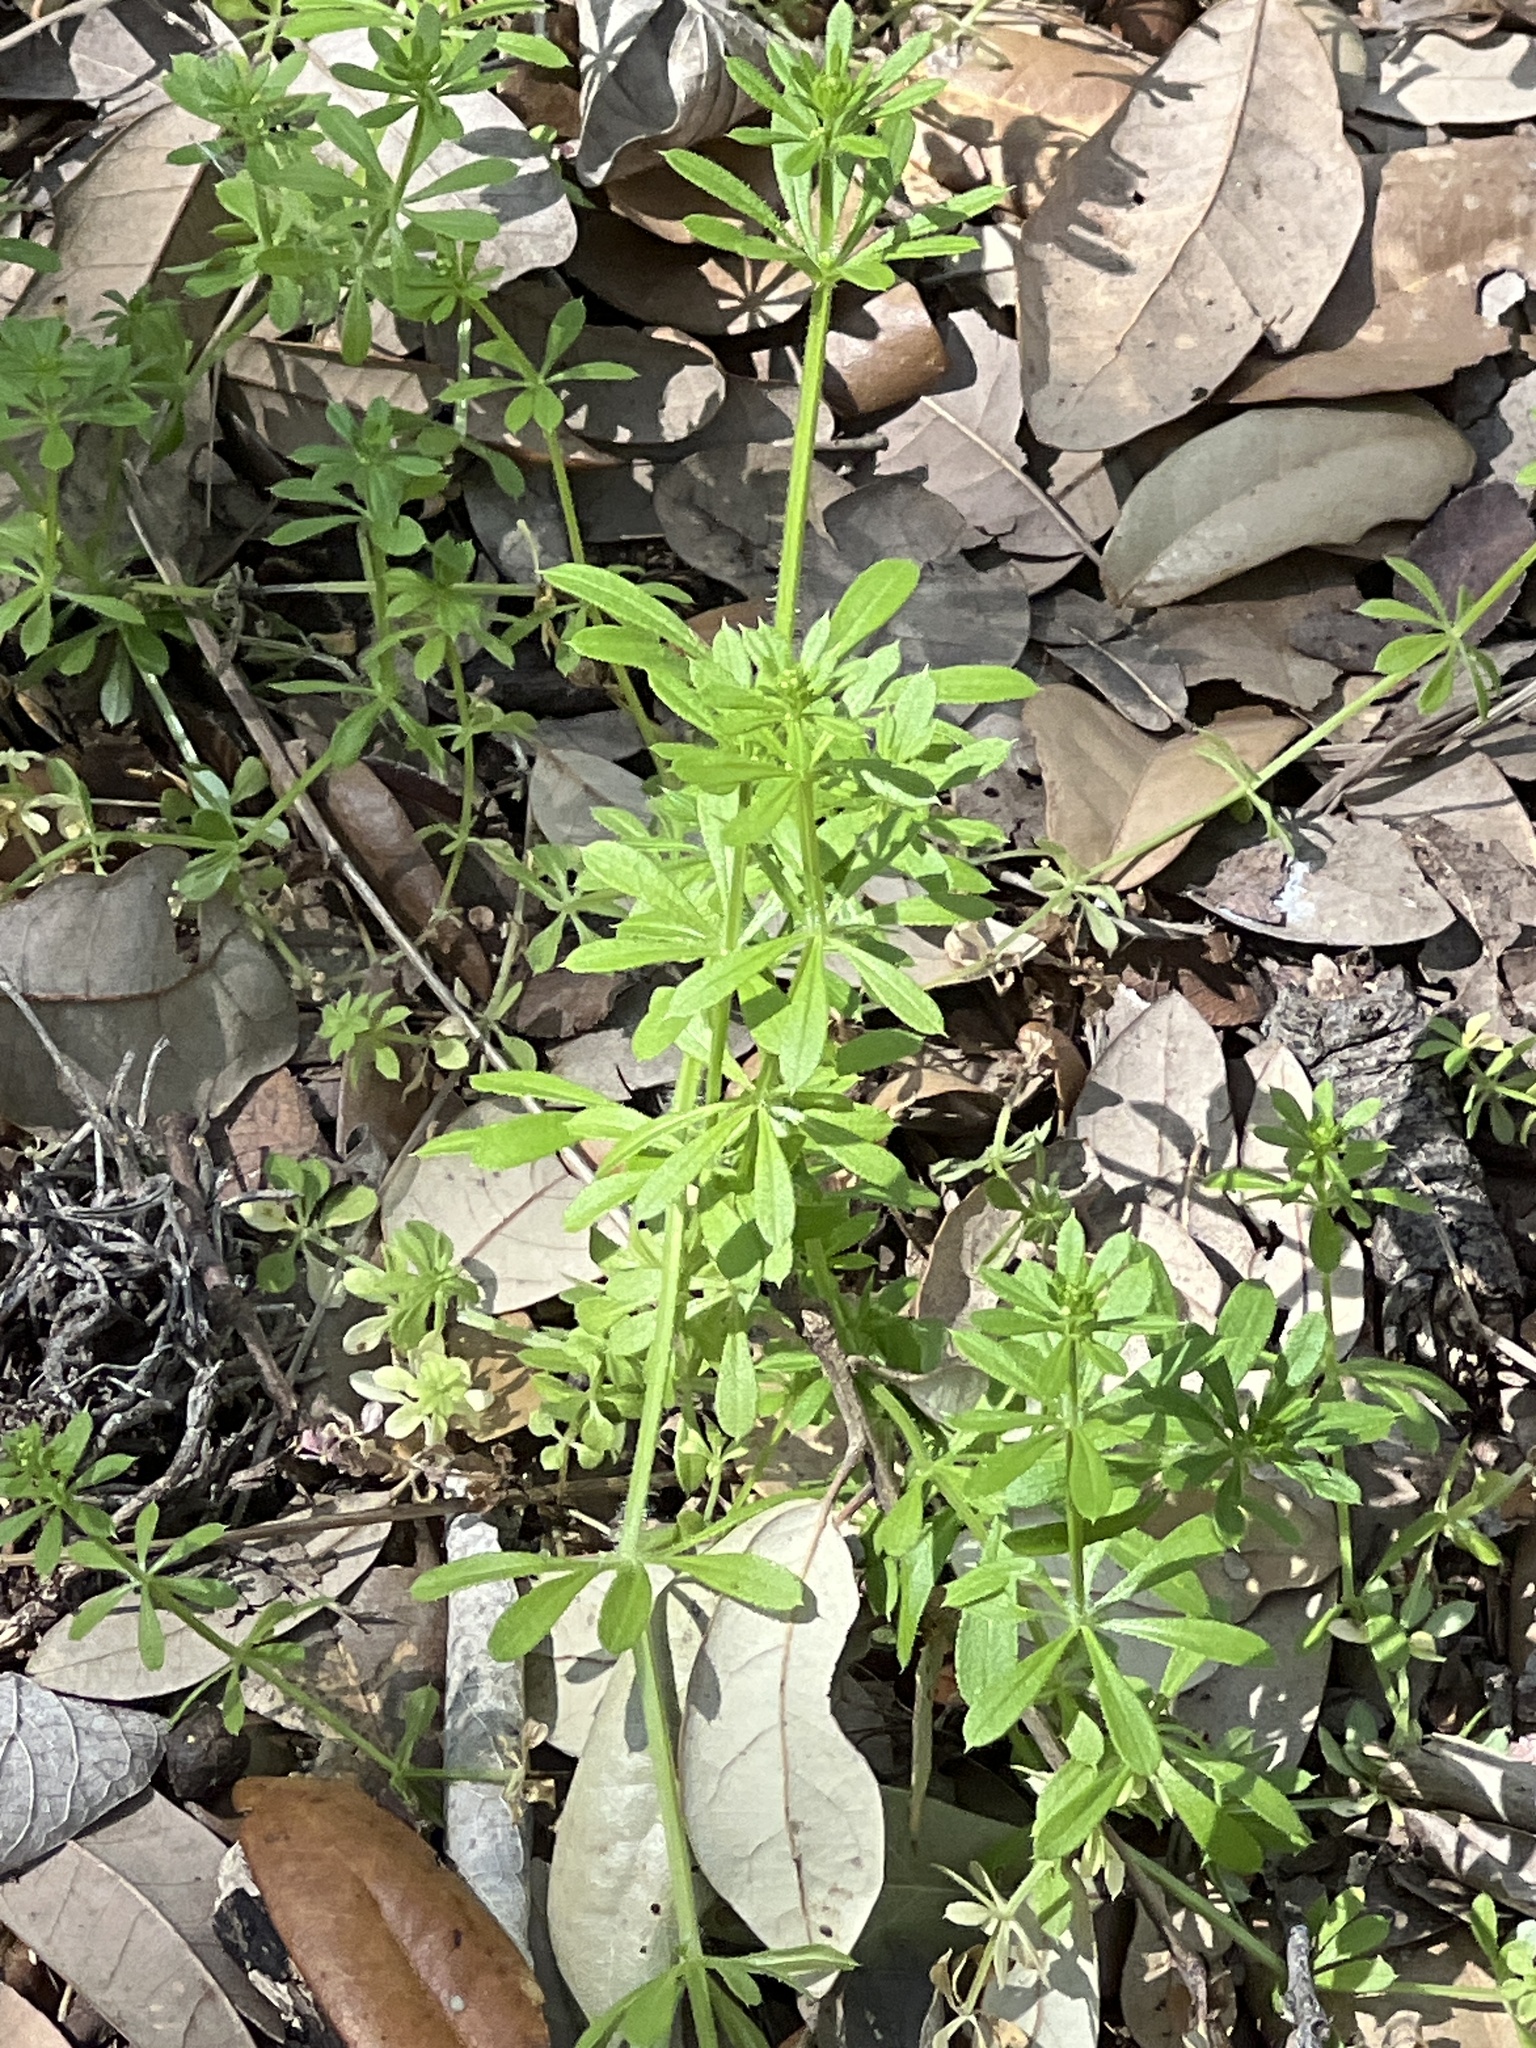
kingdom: Plantae
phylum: Tracheophyta
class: Magnoliopsida
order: Gentianales
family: Rubiaceae
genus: Galium
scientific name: Galium aparine
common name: Cleavers
